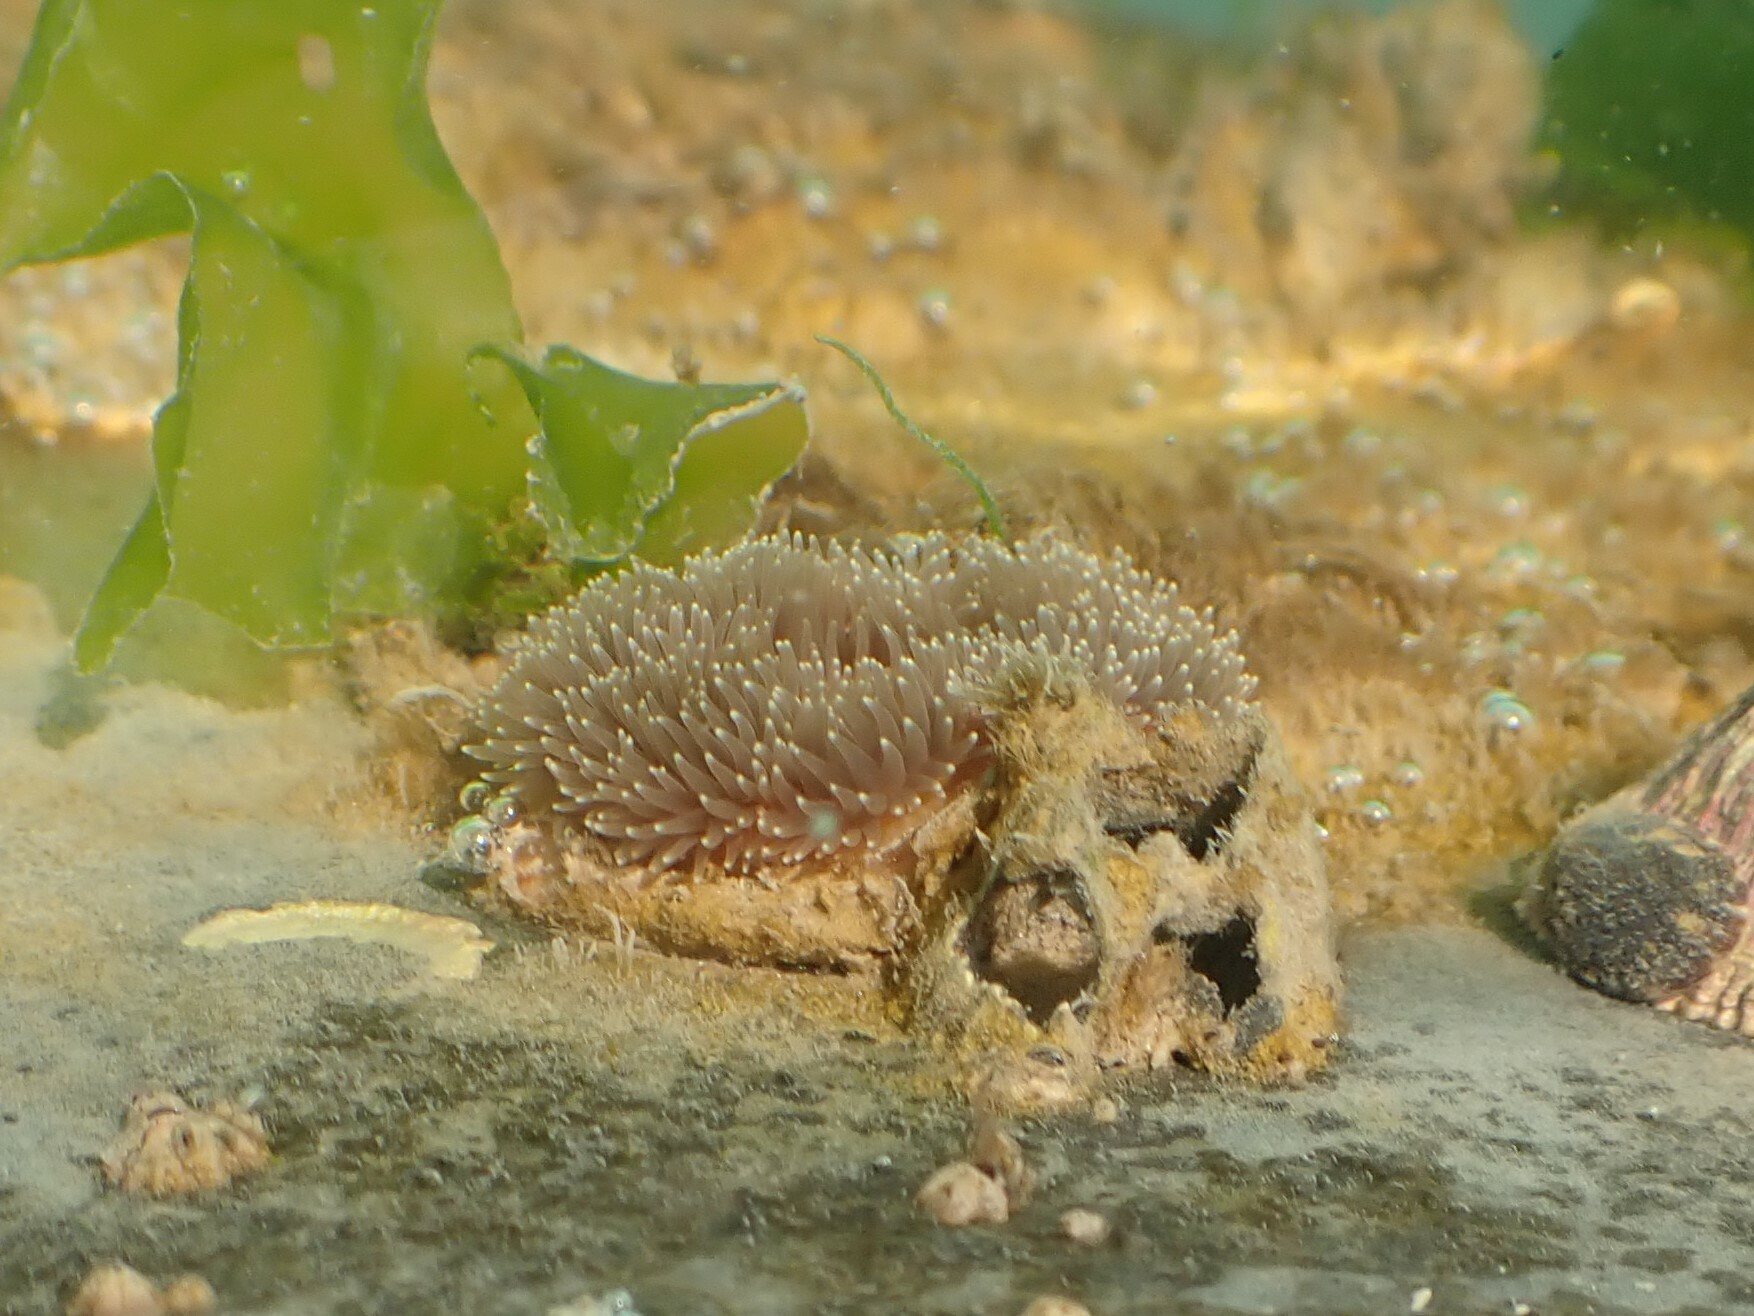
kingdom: Animalia
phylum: Cnidaria
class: Anthozoa
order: Actiniaria
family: Metridiidae
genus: Metridium
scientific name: Metridium senile
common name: Clonal plumose anemone
